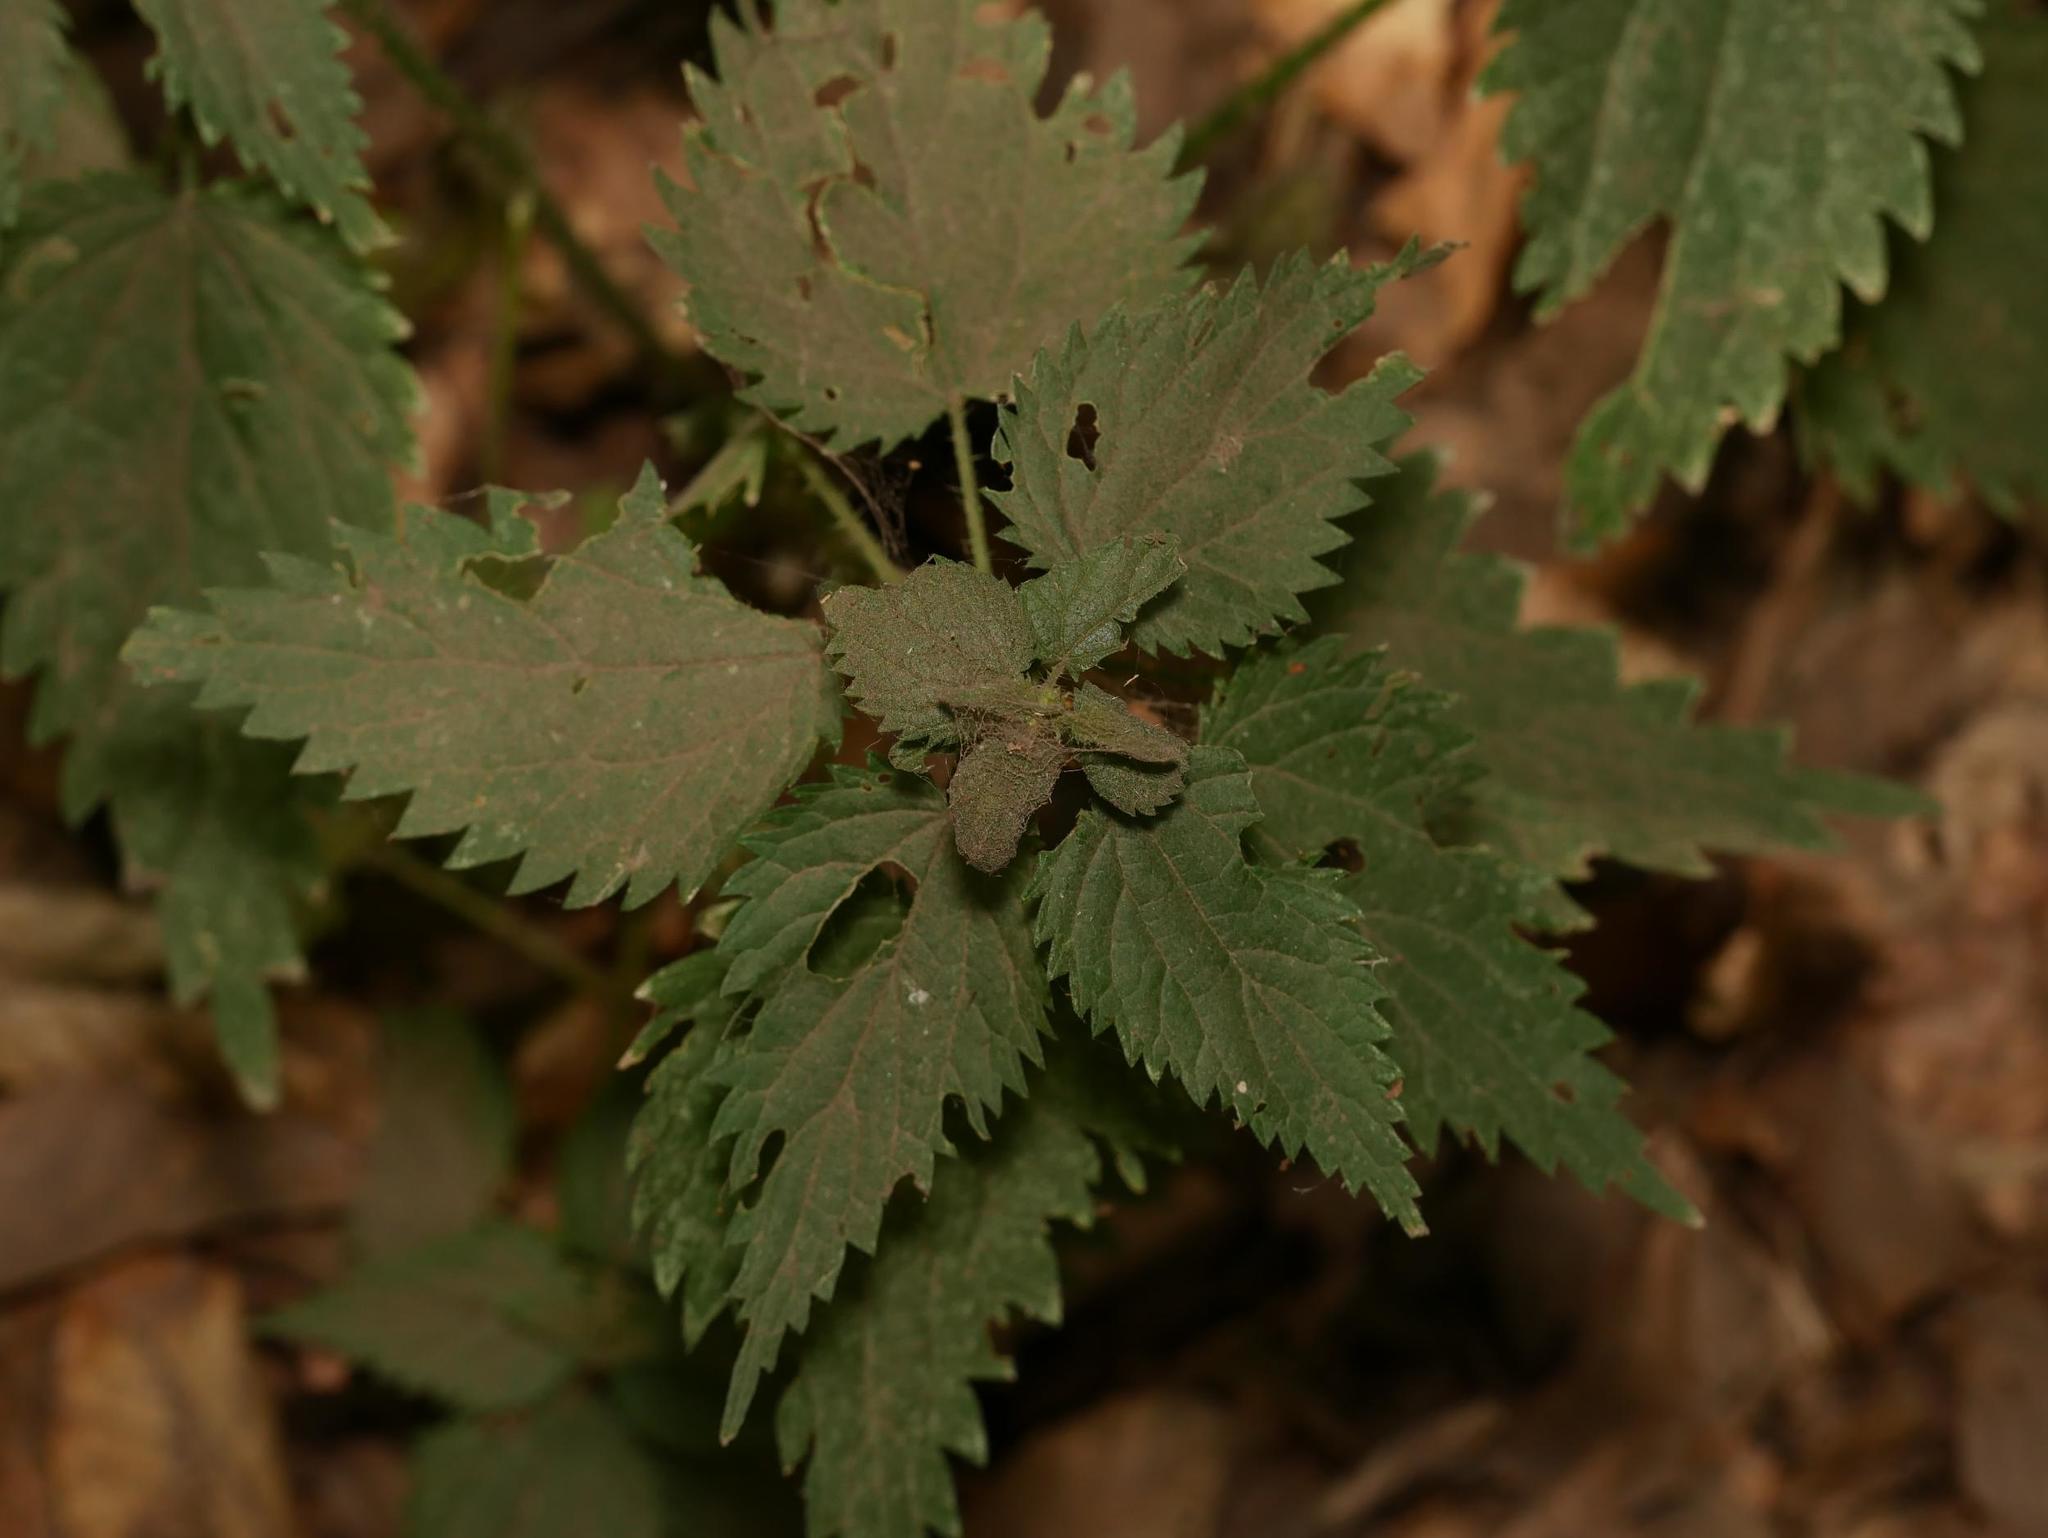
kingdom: Plantae
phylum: Tracheophyta
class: Magnoliopsida
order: Rosales
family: Urticaceae
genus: Urtica
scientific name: Urtica dioica
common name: Common nettle
